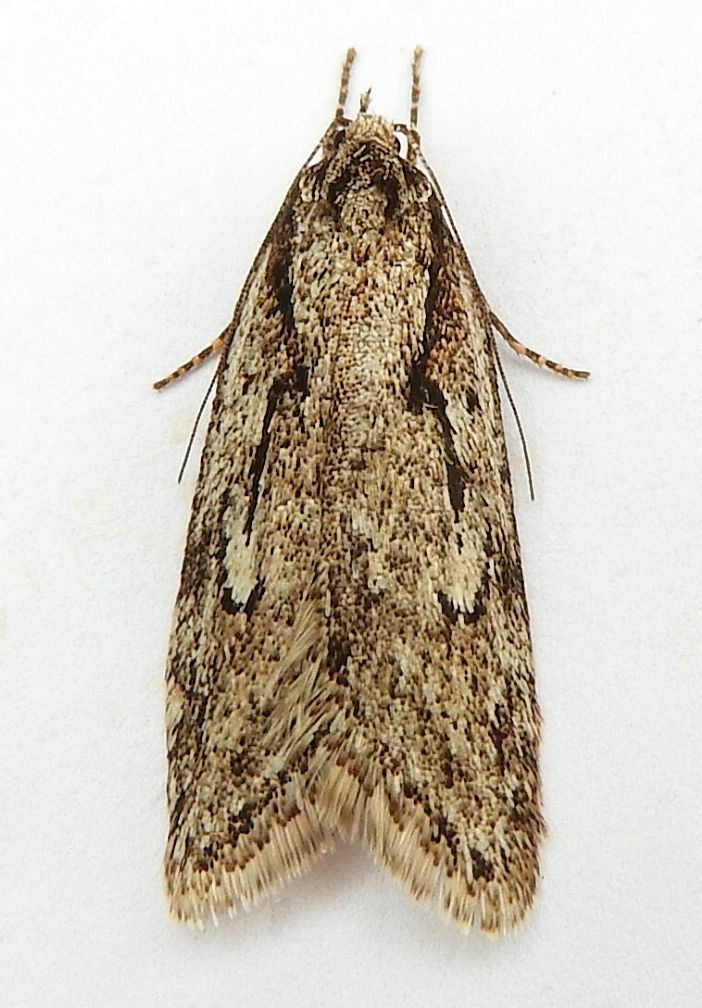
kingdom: Animalia
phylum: Arthropoda
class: Insecta
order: Lepidoptera
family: Depressariidae
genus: Semioscopis
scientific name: Semioscopis aurorella
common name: Aurora flatbody moth
